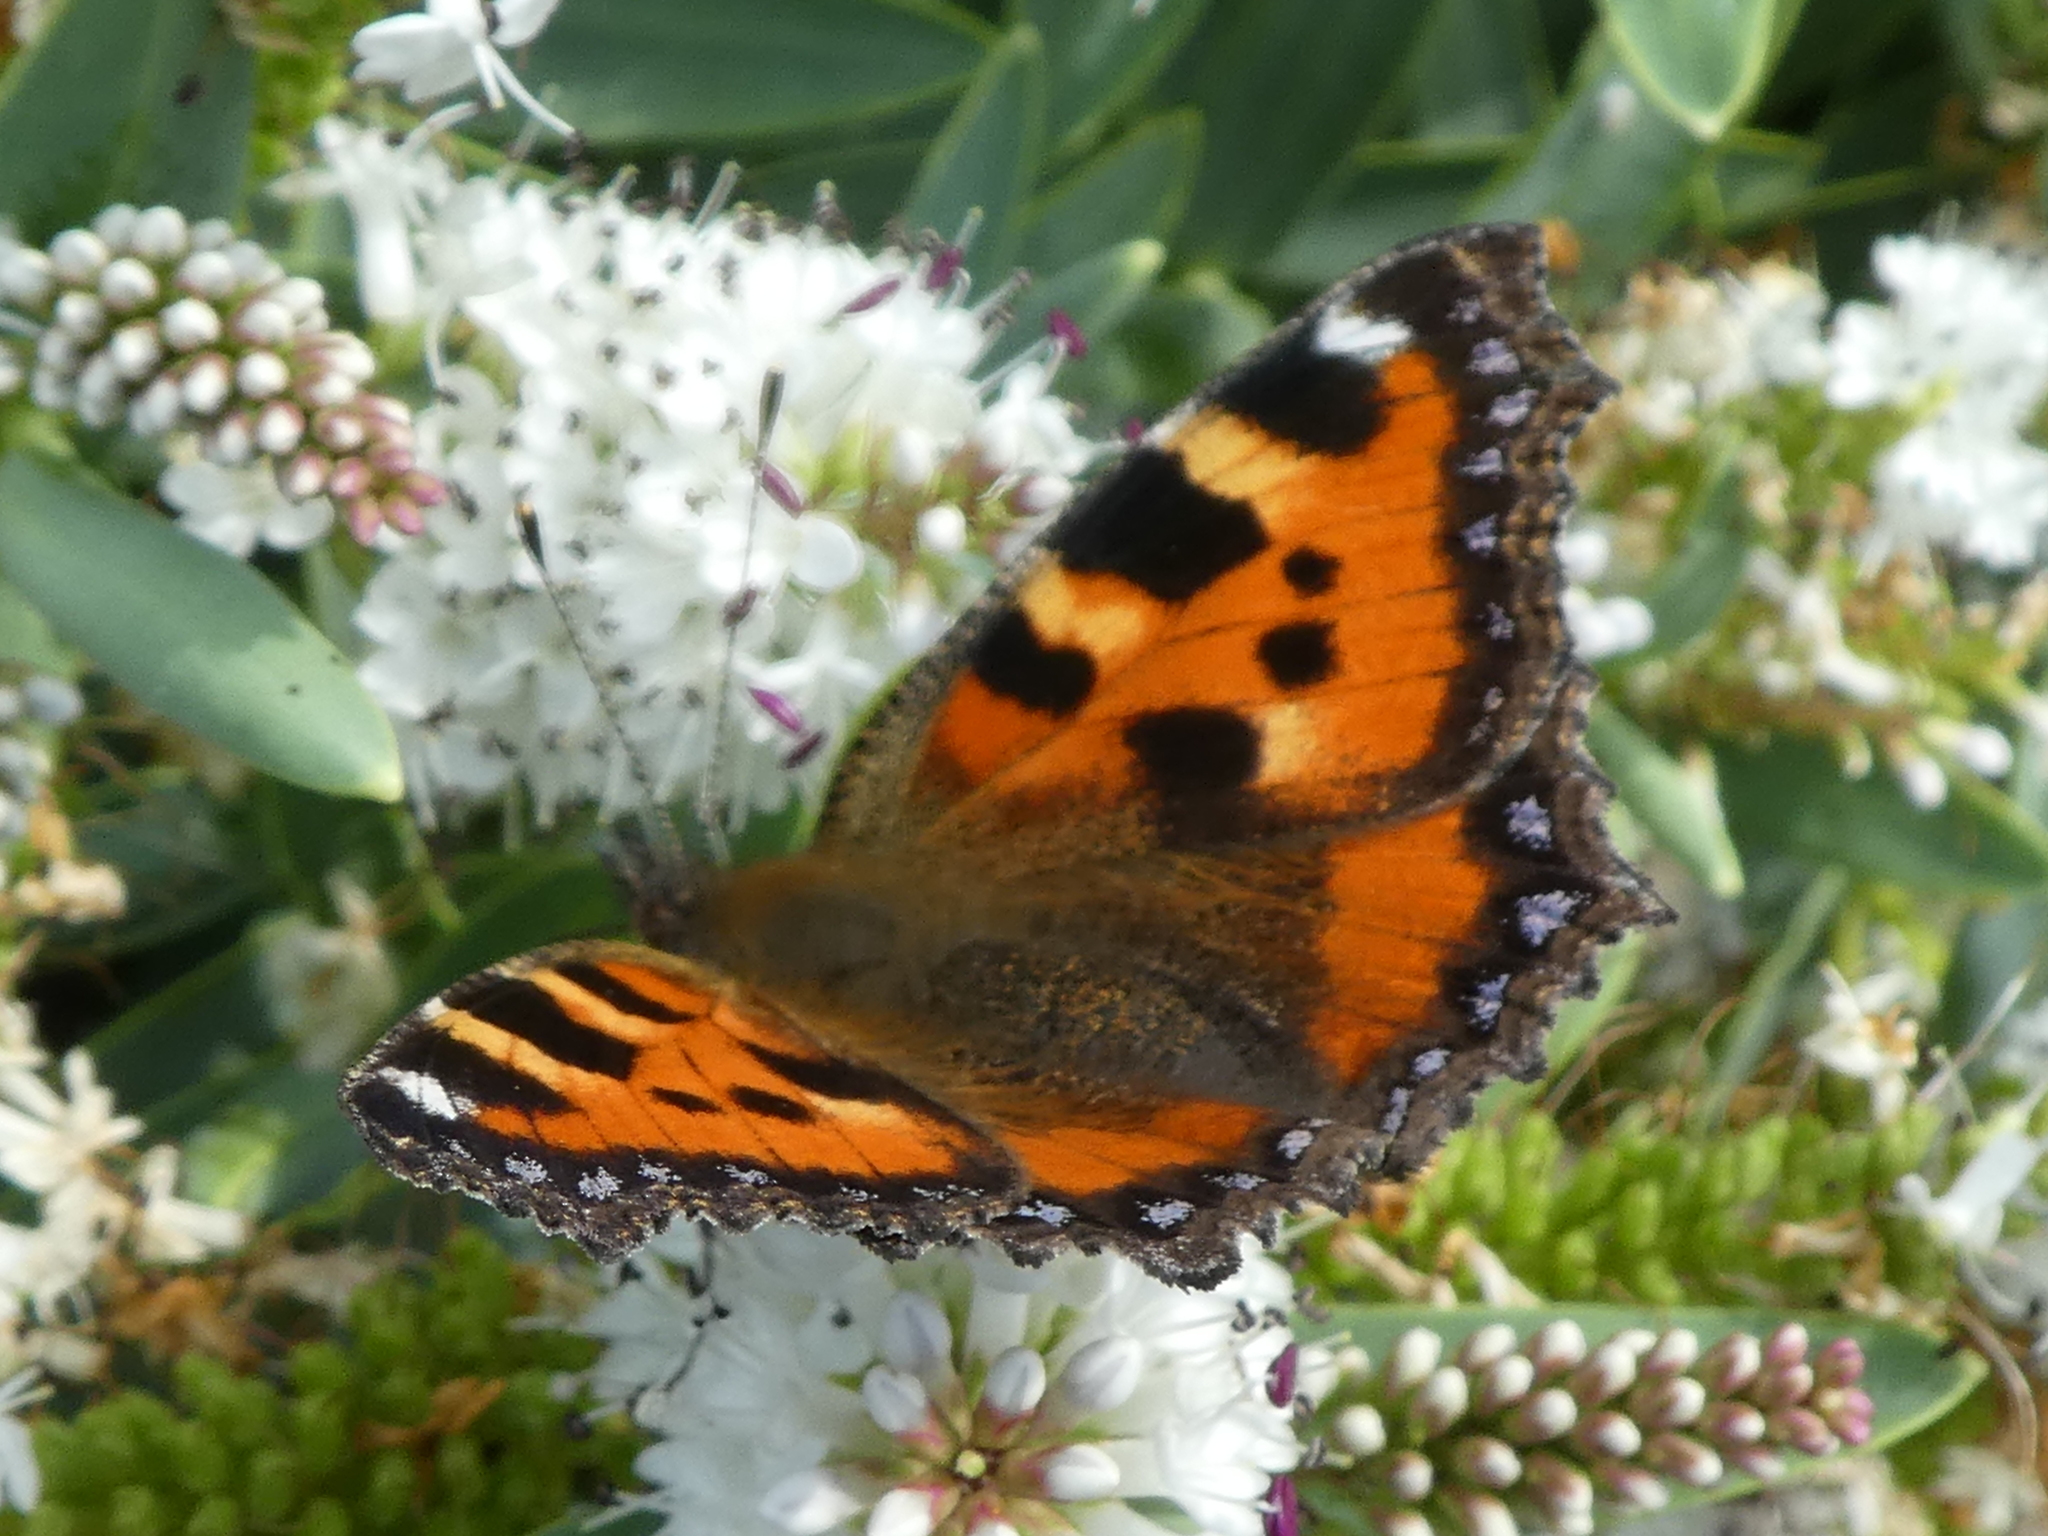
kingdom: Animalia
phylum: Arthropoda
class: Insecta
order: Lepidoptera
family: Nymphalidae
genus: Aglais
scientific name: Aglais urticae
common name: Small tortoiseshell
